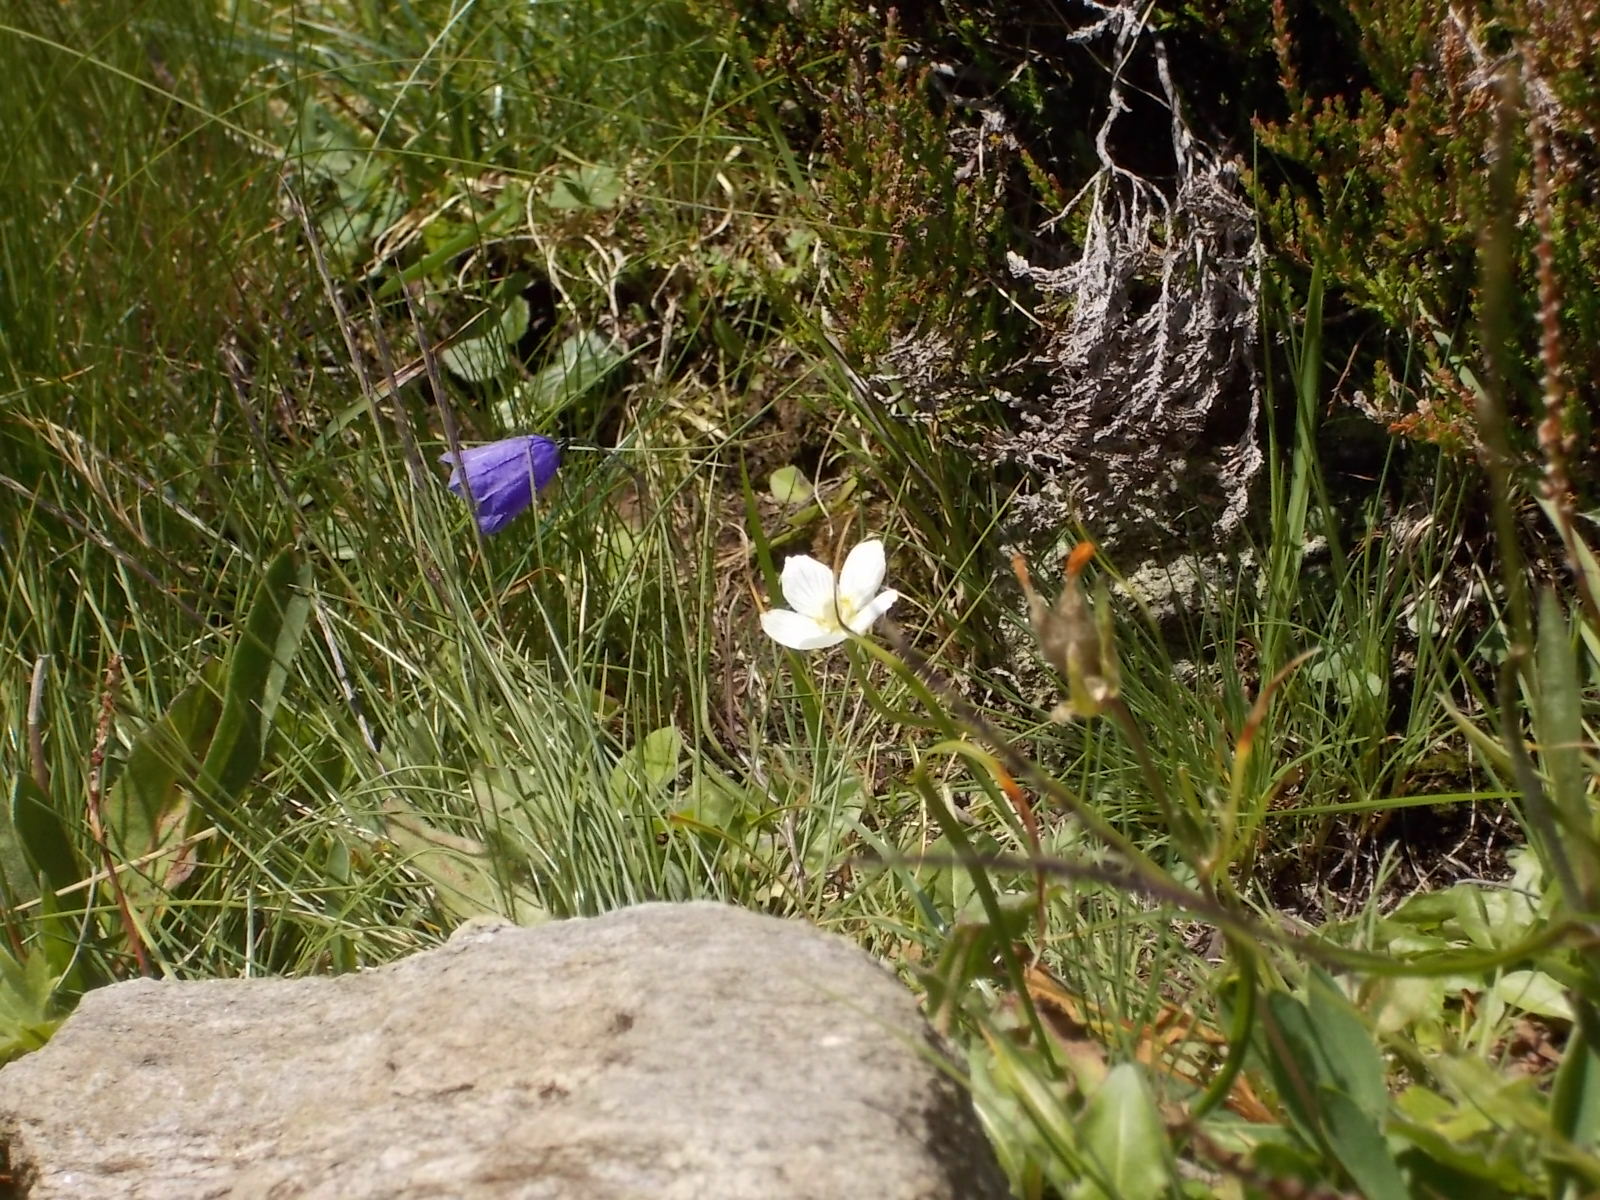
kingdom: Plantae
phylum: Tracheophyta
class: Magnoliopsida
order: Celastrales
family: Parnassiaceae
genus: Parnassia
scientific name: Parnassia palustris
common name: Grass-of-parnassus
